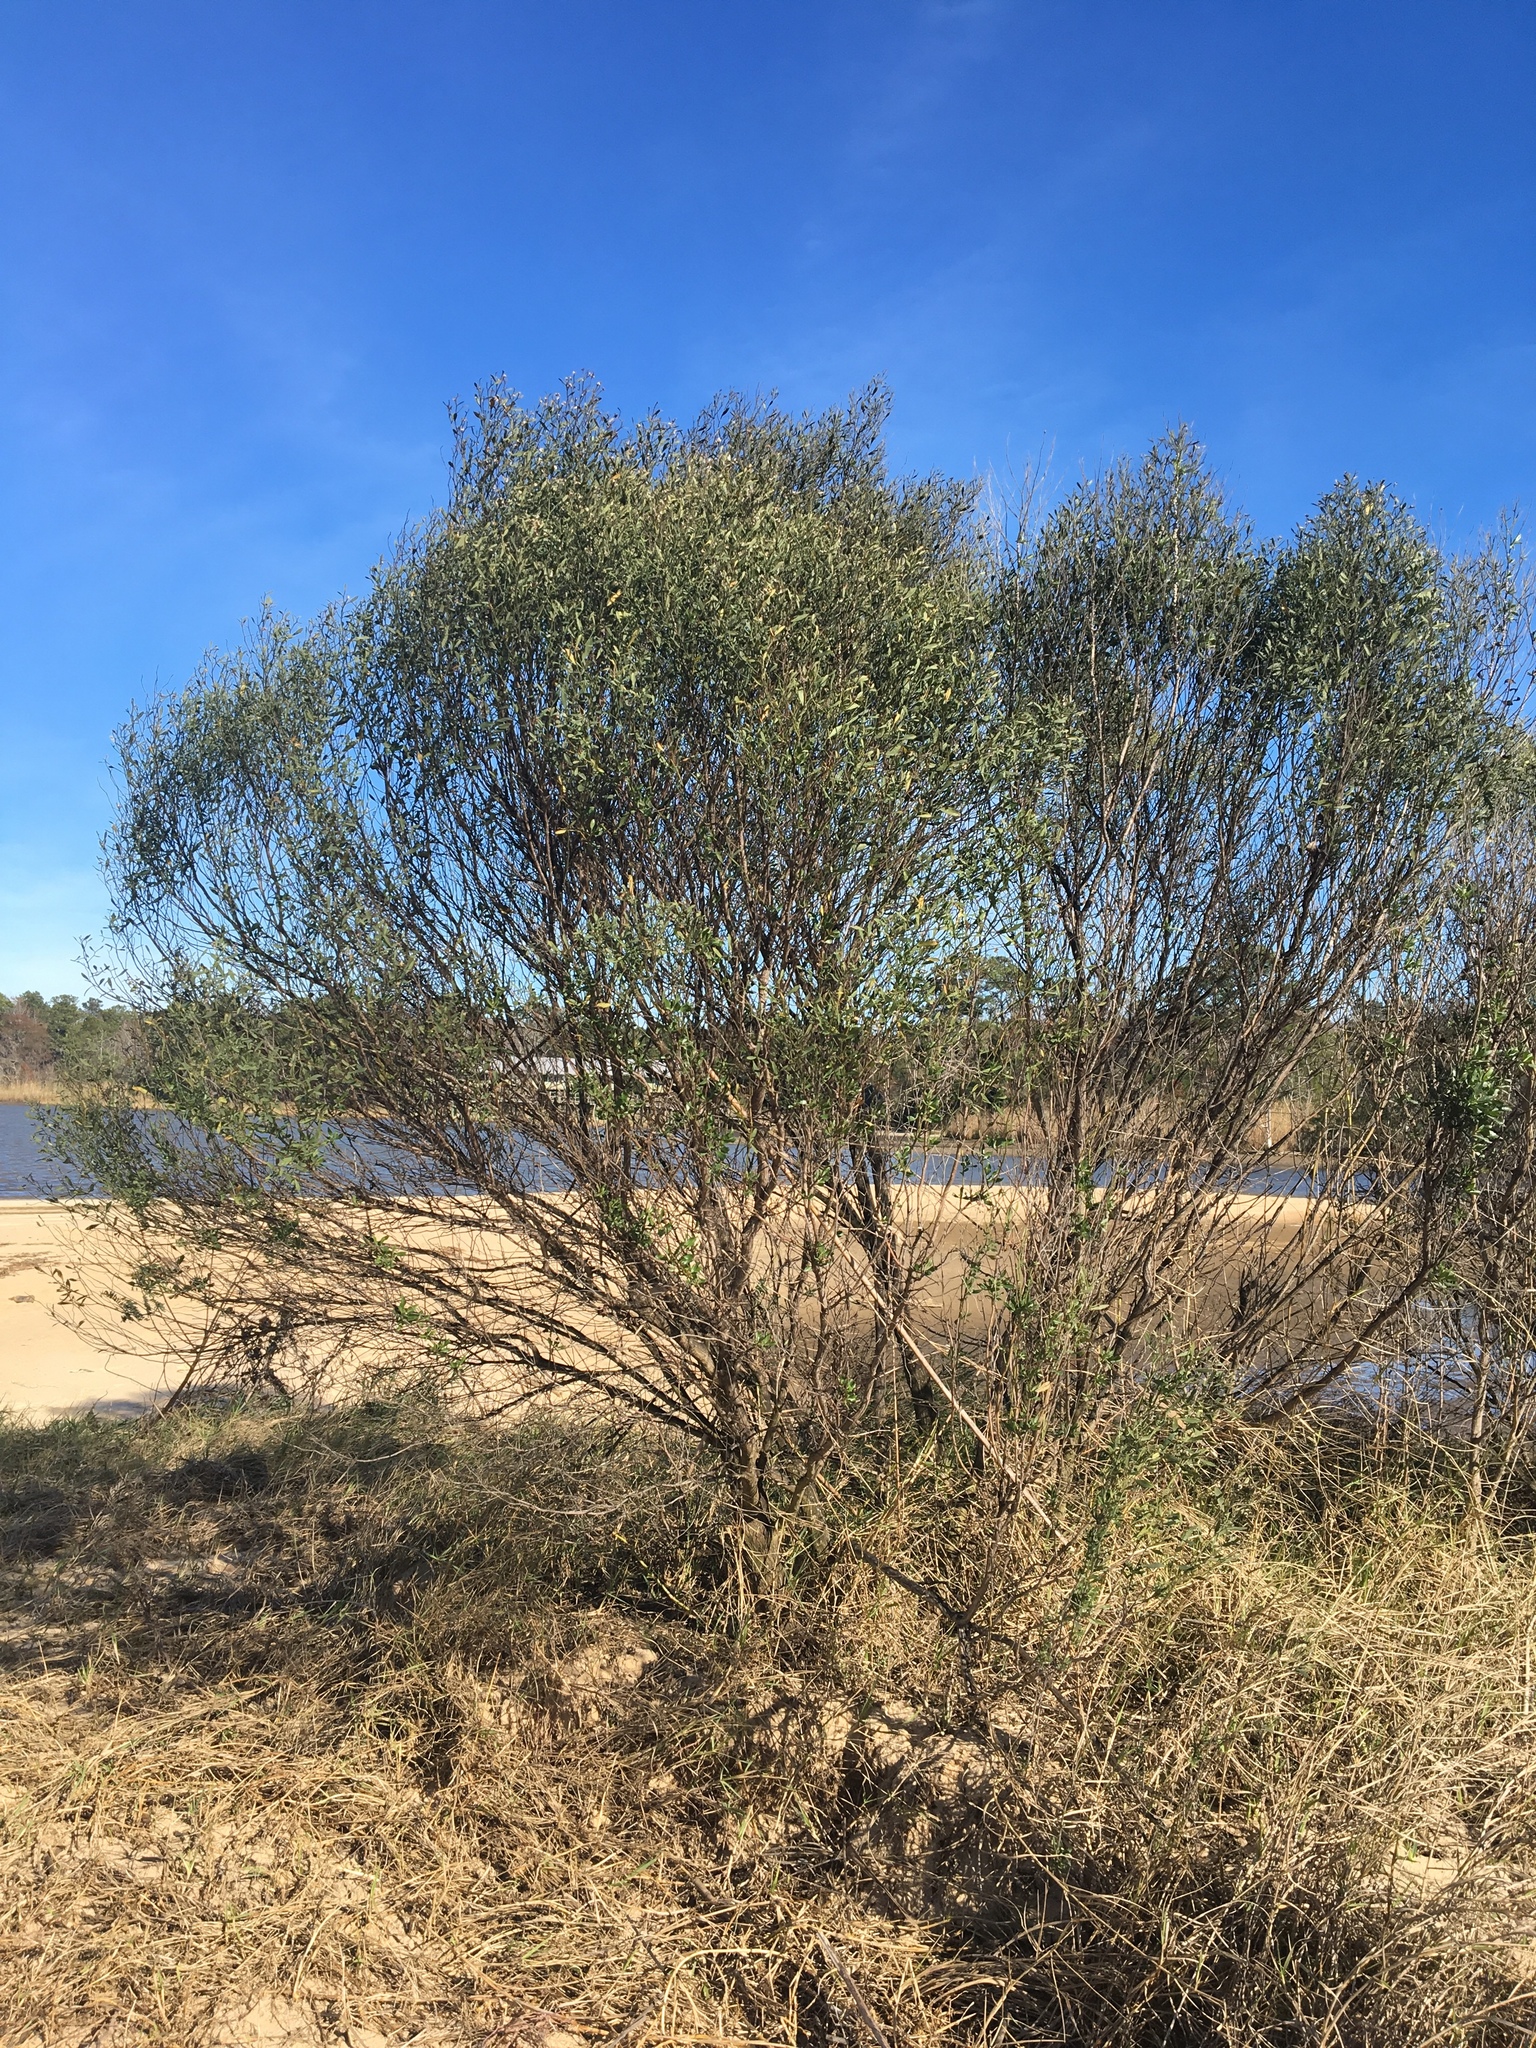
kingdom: Plantae
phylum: Tracheophyta
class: Magnoliopsida
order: Asterales
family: Asteraceae
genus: Baccharis
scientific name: Baccharis halimifolia
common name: Eastern baccharis
